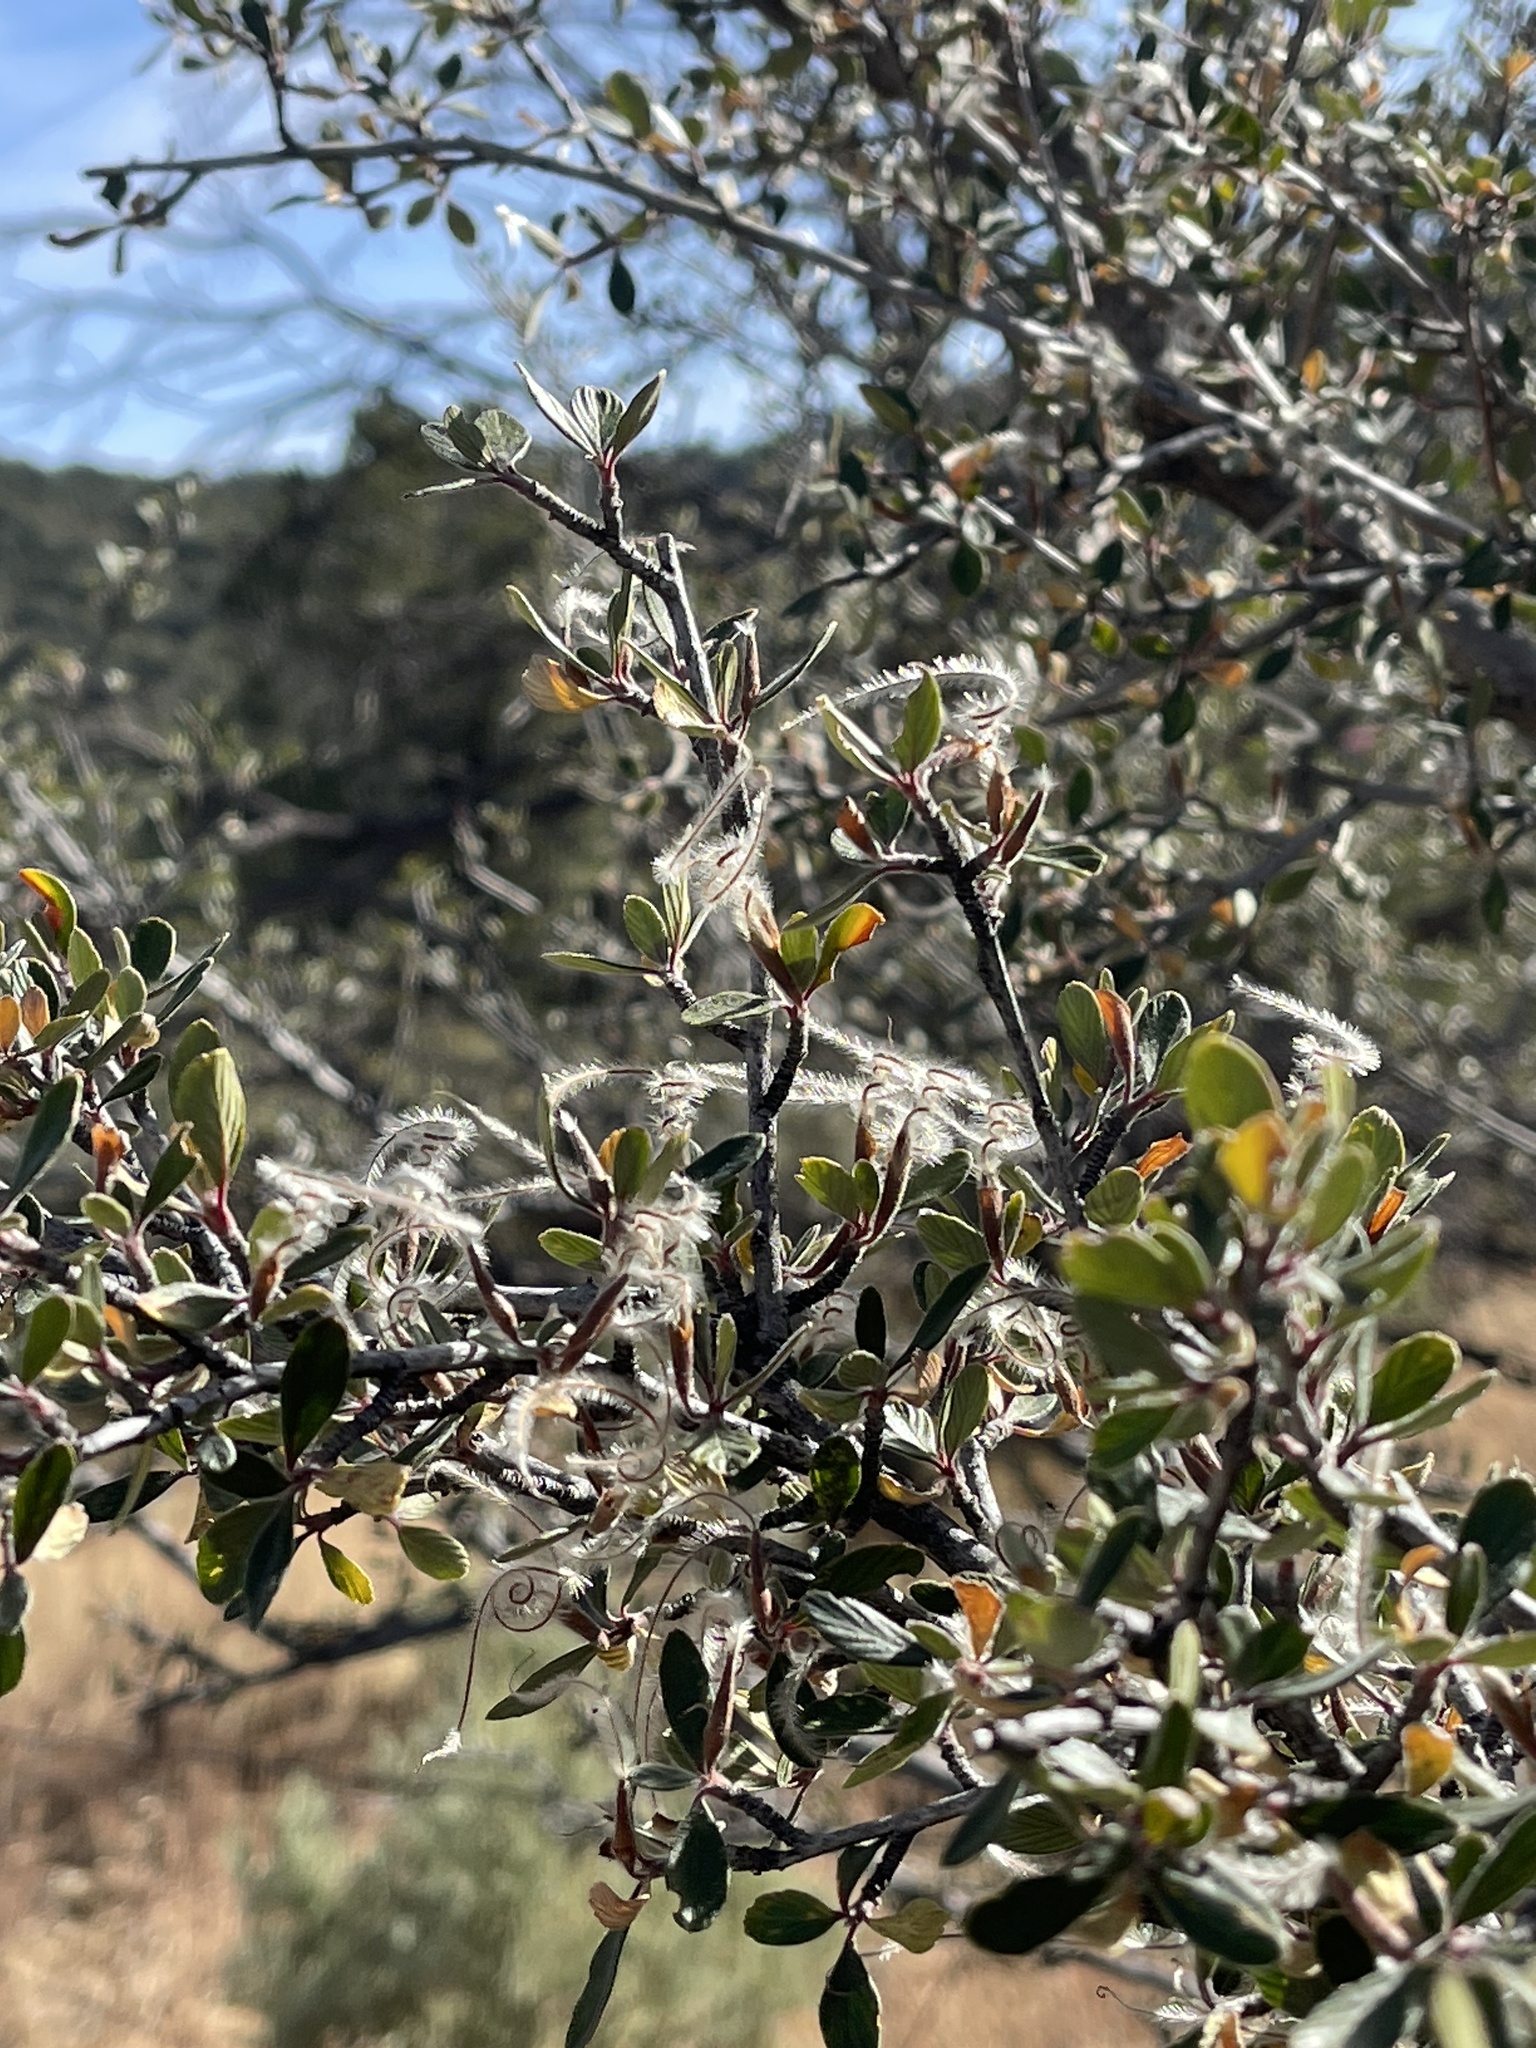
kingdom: Plantae
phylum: Tracheophyta
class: Magnoliopsida
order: Rosales
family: Rosaceae
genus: Cercocarpus
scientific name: Cercocarpus breviflorus
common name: Wright's mountain-mahogany
